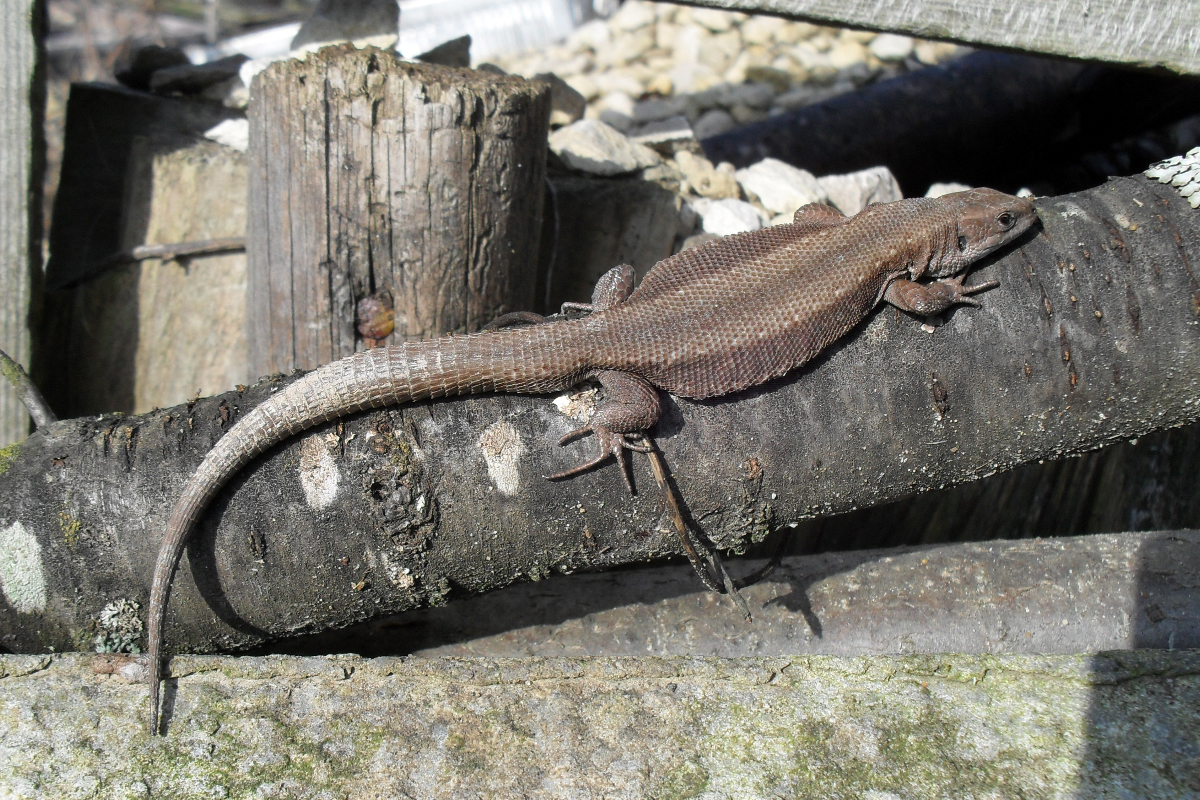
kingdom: Animalia
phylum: Chordata
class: Squamata
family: Lacertidae
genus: Zootoca
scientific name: Zootoca vivipara
